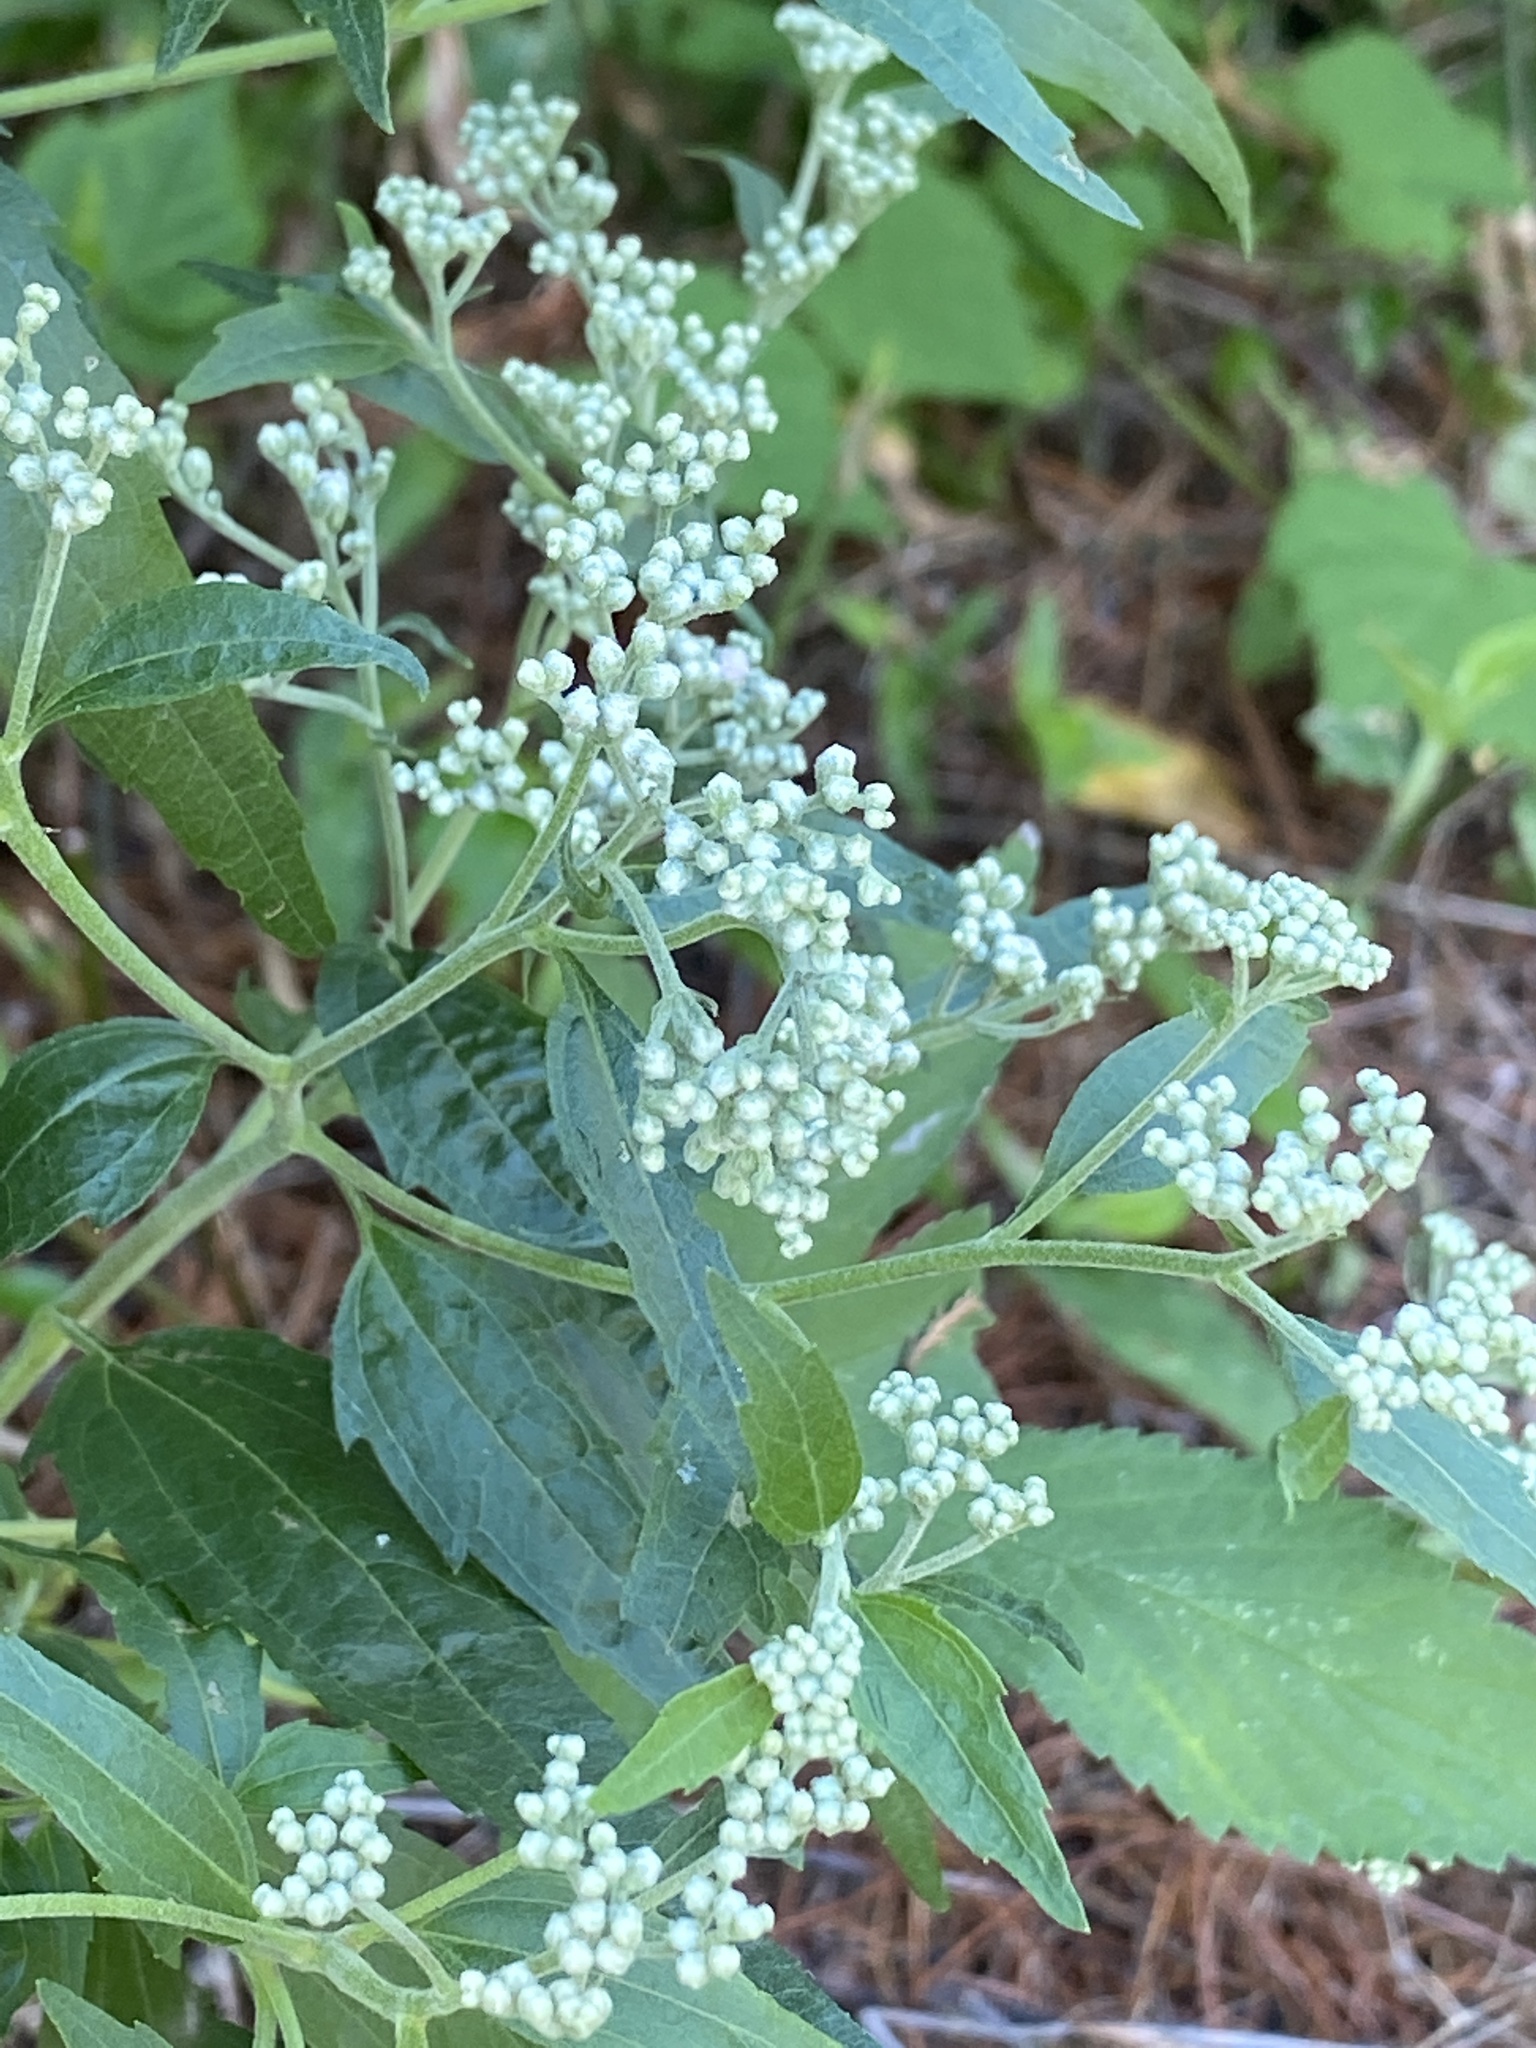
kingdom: Plantae
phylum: Tracheophyta
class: Magnoliopsida
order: Asterales
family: Asteraceae
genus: Eupatorium
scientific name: Eupatorium serotinum
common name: Late boneset
